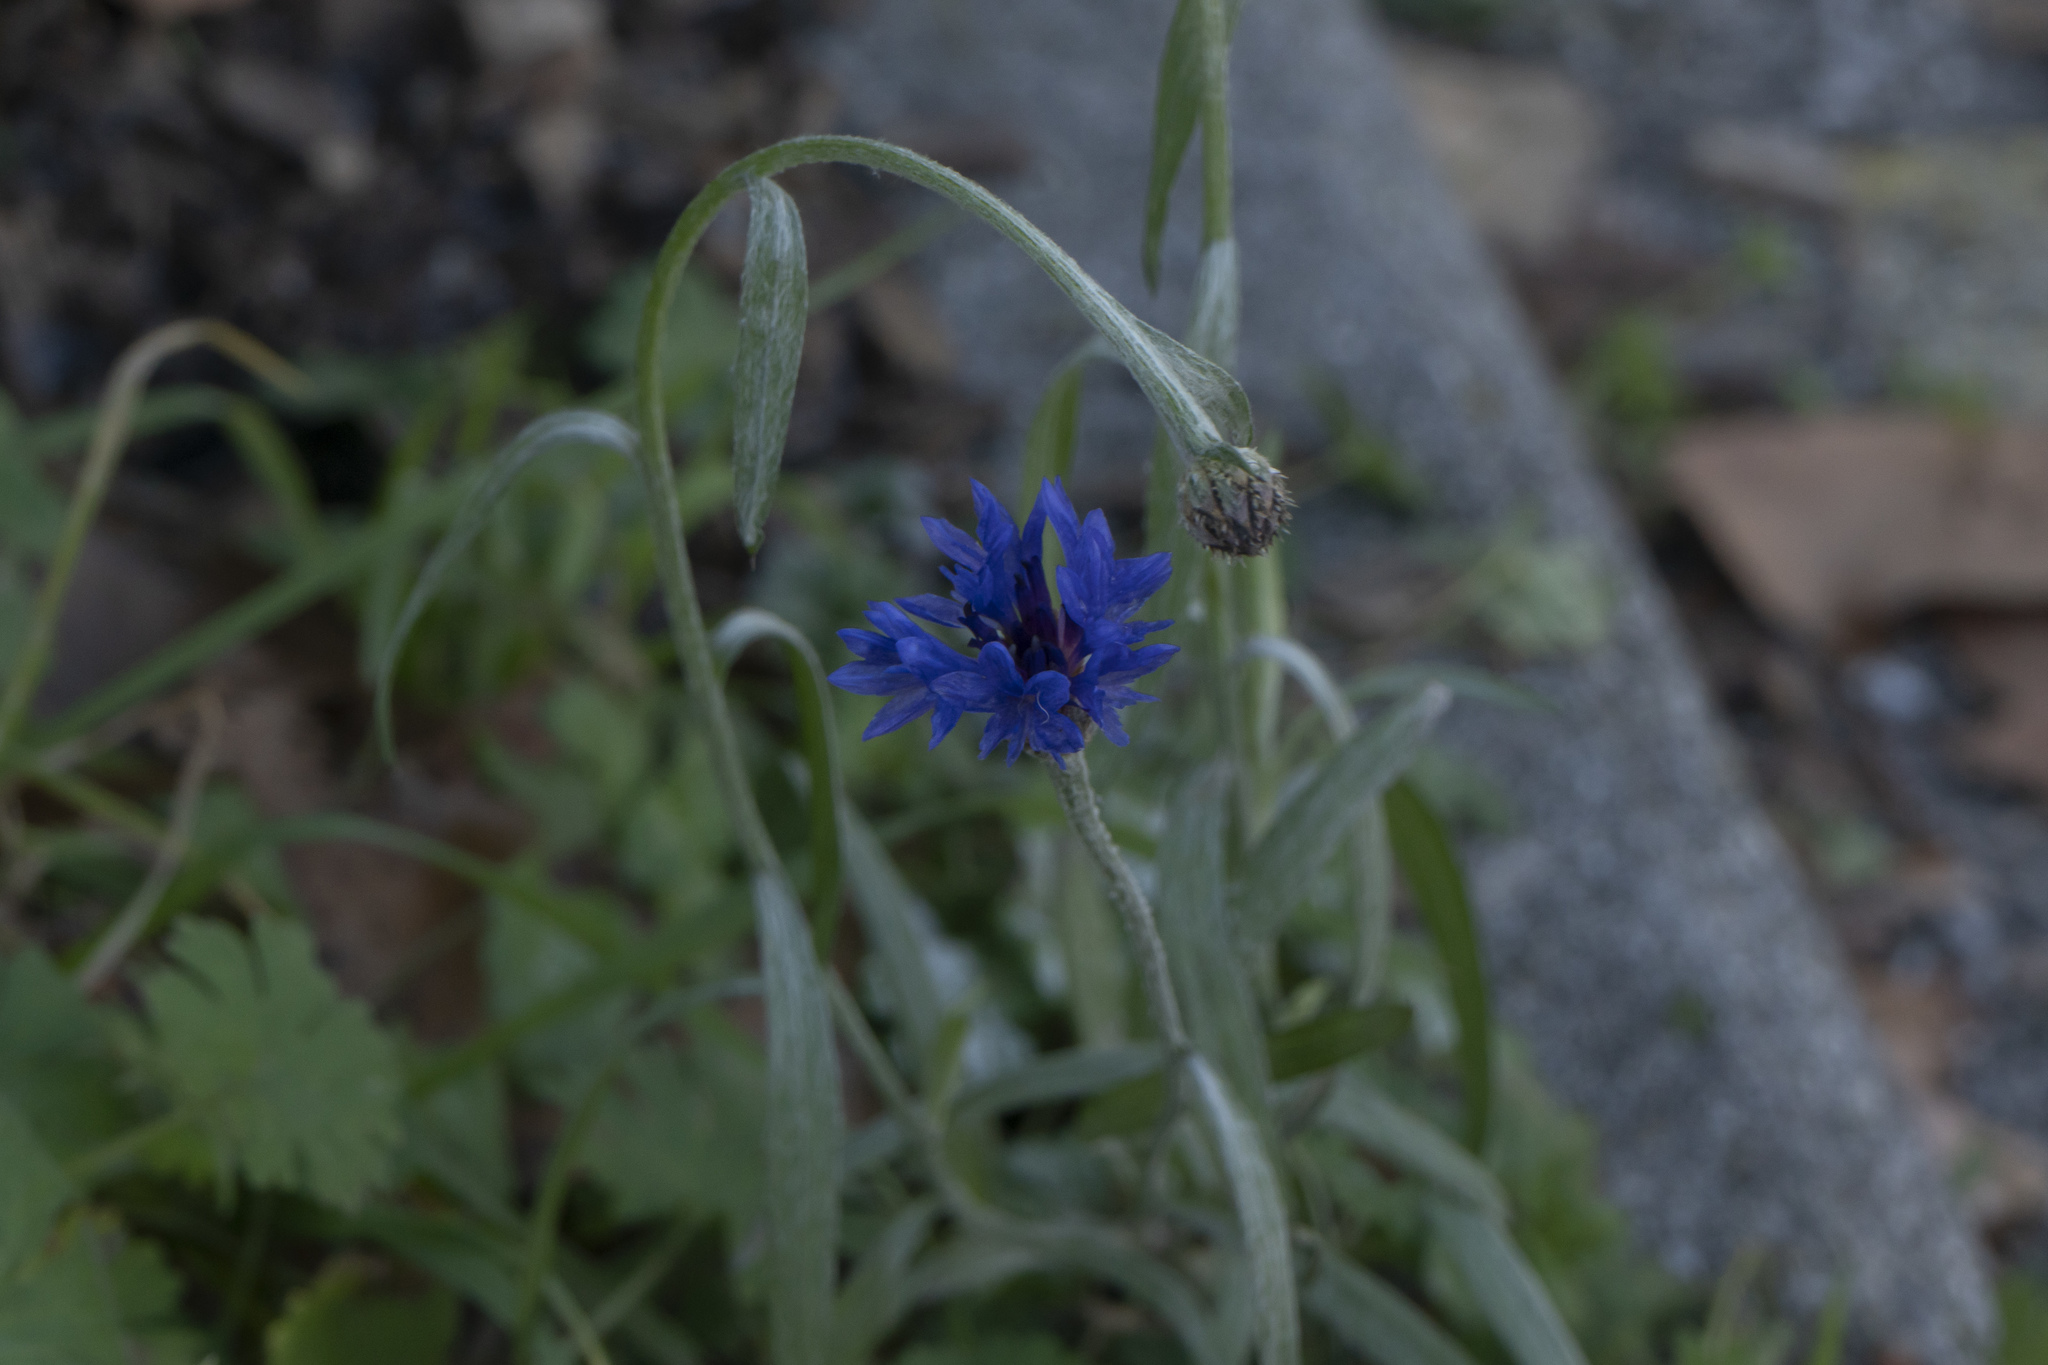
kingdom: Plantae
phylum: Tracheophyta
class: Magnoliopsida
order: Asterales
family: Asteraceae
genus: Centaurea
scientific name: Centaurea cyanus
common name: Cornflower
